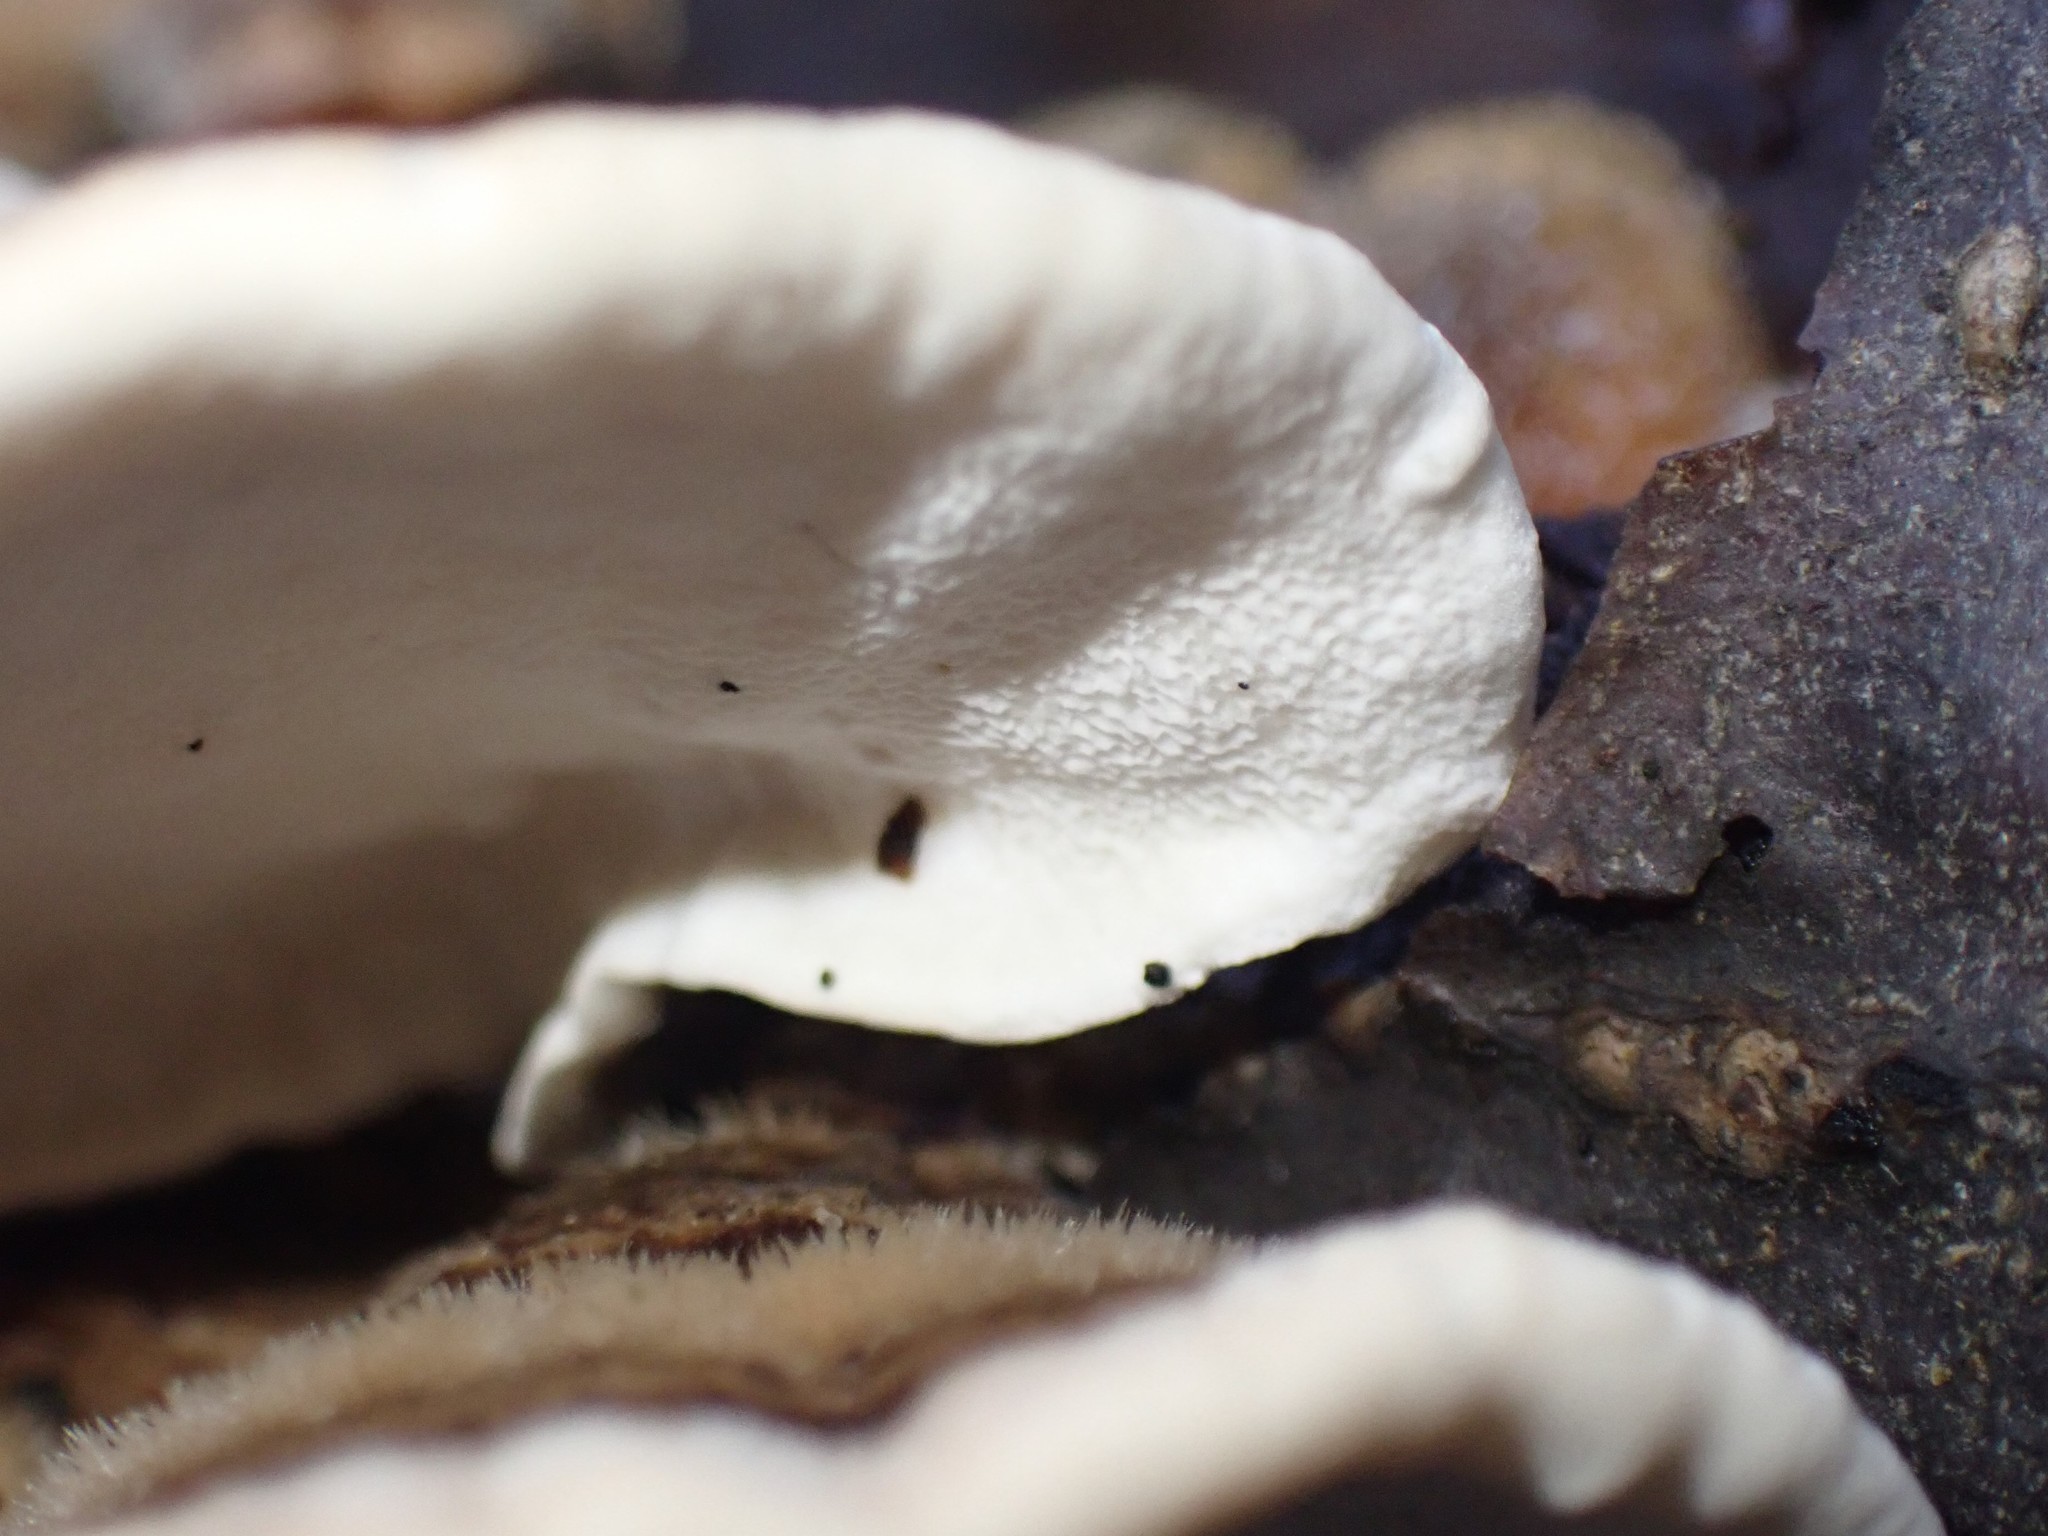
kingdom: Fungi
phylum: Basidiomycota
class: Agaricomycetes
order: Polyporales
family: Polyporaceae
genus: Trametes
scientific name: Trametes versicolor
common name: Turkeytail
